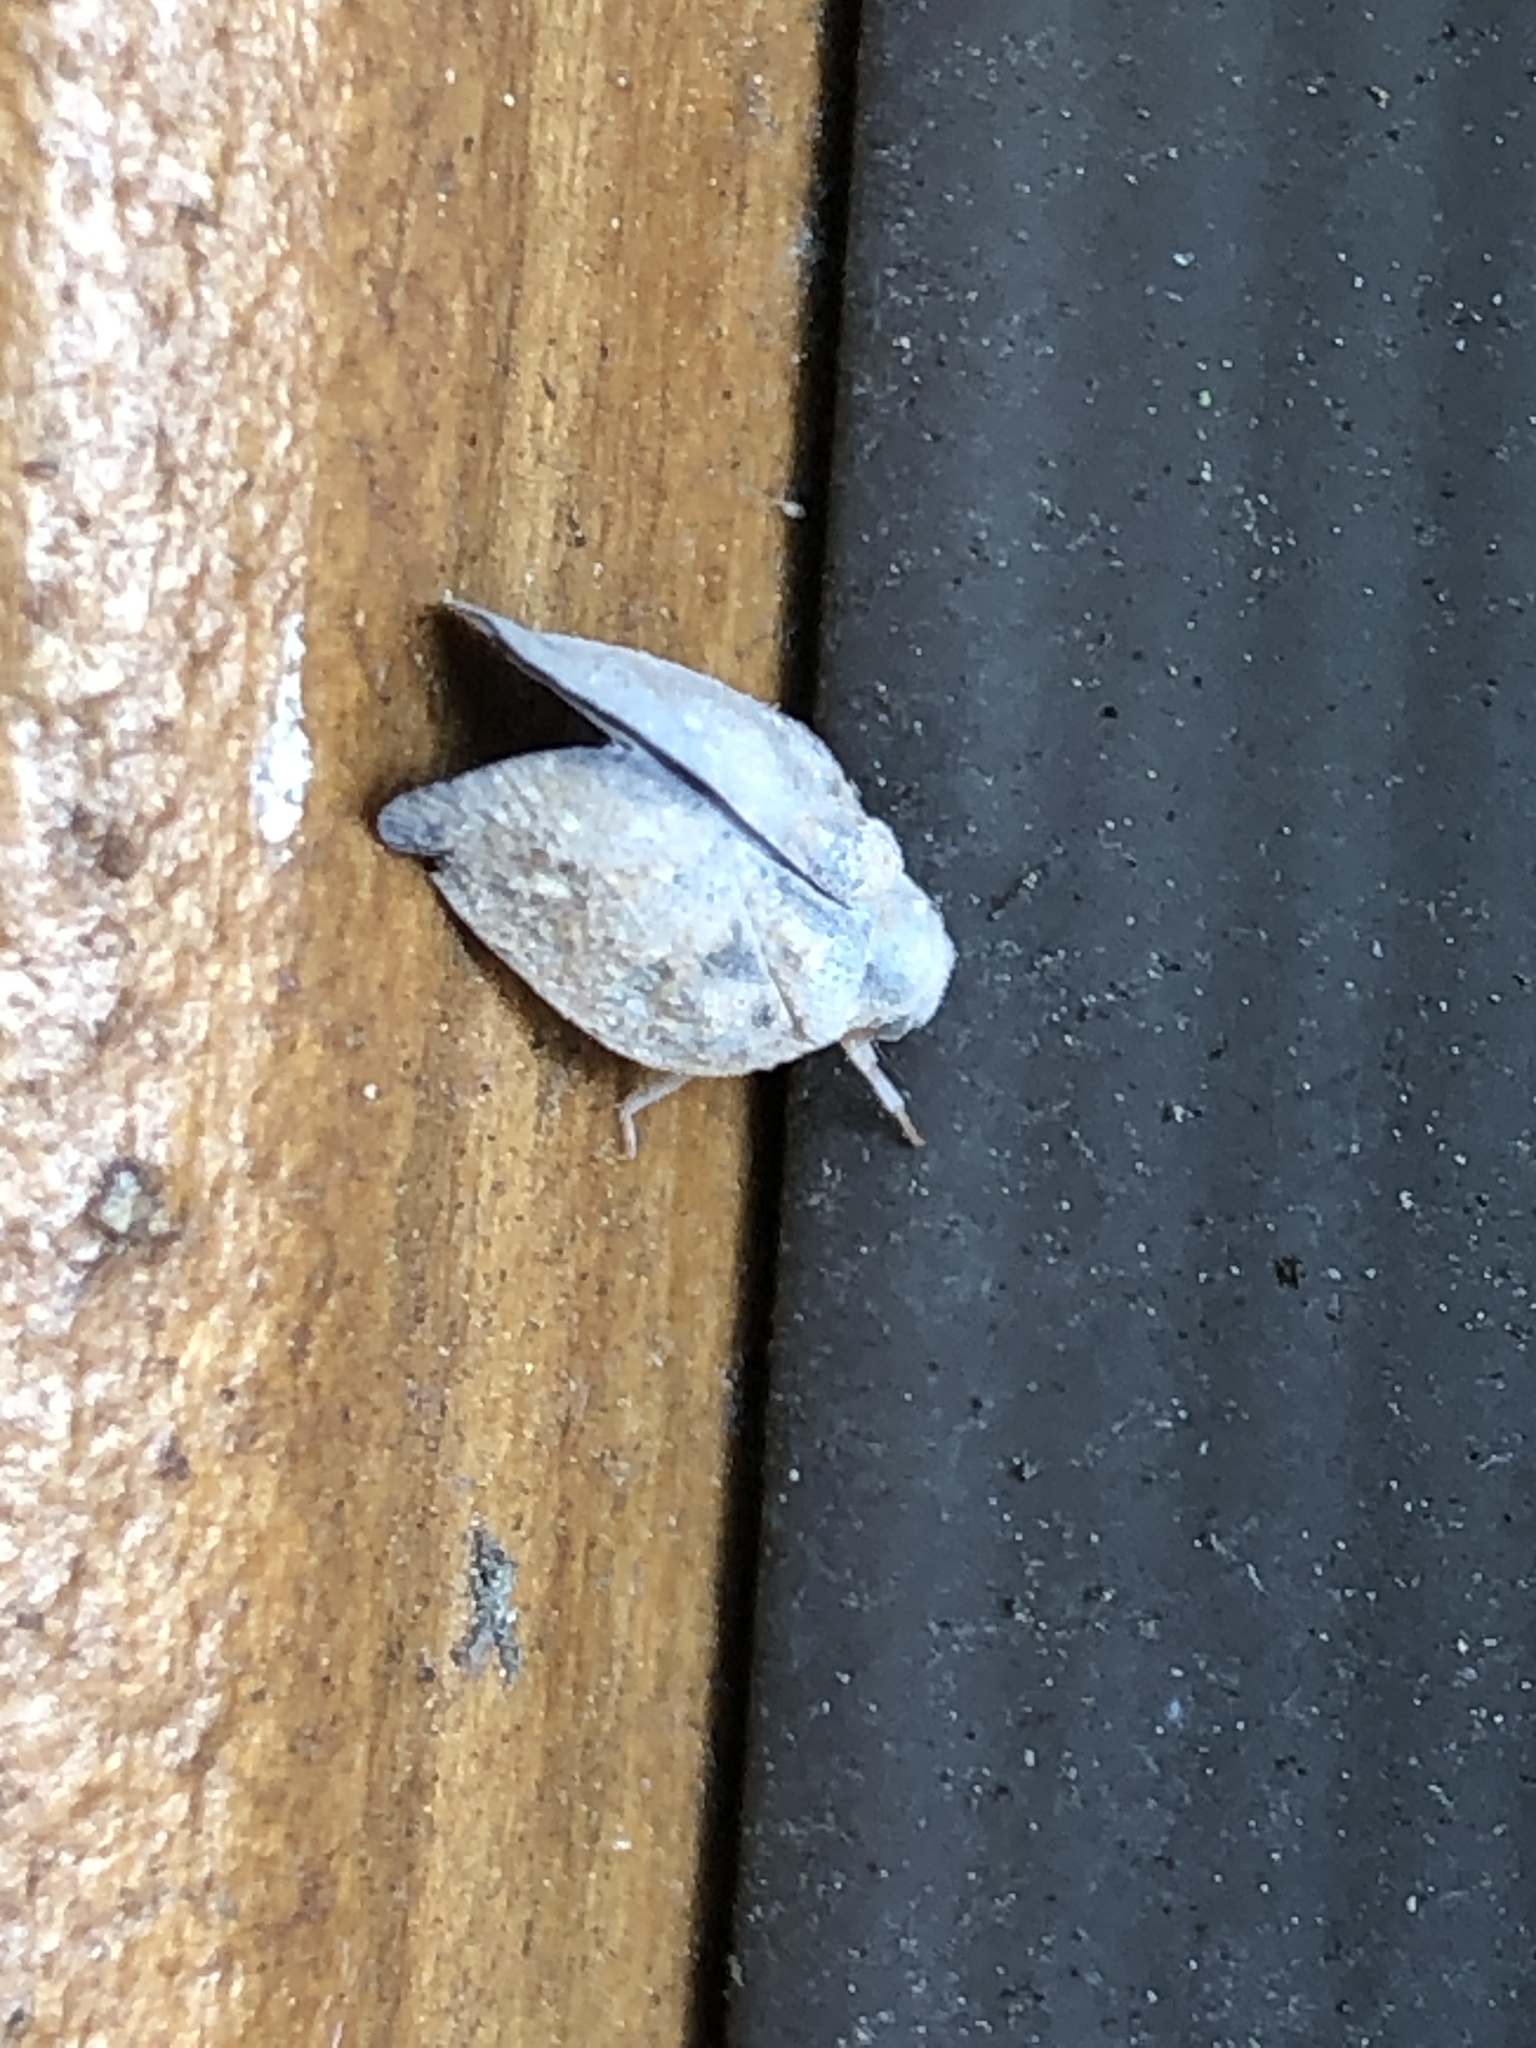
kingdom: Animalia
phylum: Arthropoda
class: Insecta
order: Hemiptera
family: Flatidae
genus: Metcalfa
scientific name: Metcalfa pruinosa
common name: Citrus flatid planthopper
